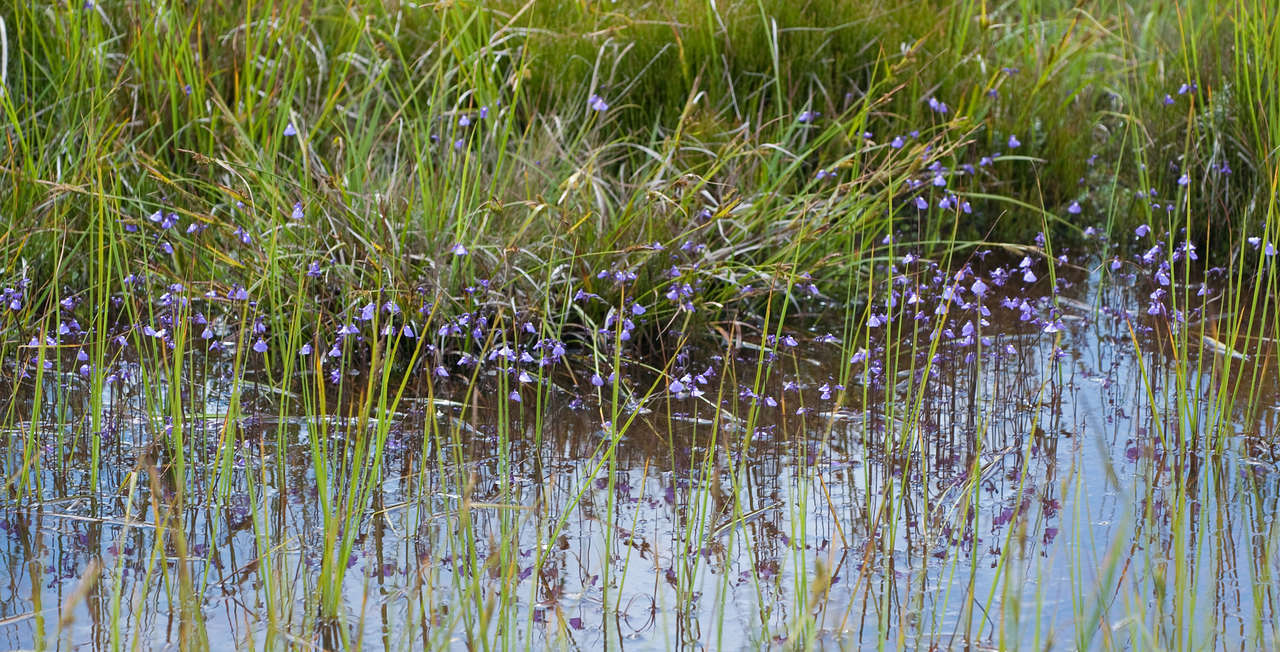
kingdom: Plantae
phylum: Tracheophyta
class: Magnoliopsida
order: Lamiales
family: Lentibulariaceae
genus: Utricularia
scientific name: Utricularia dichotoma
